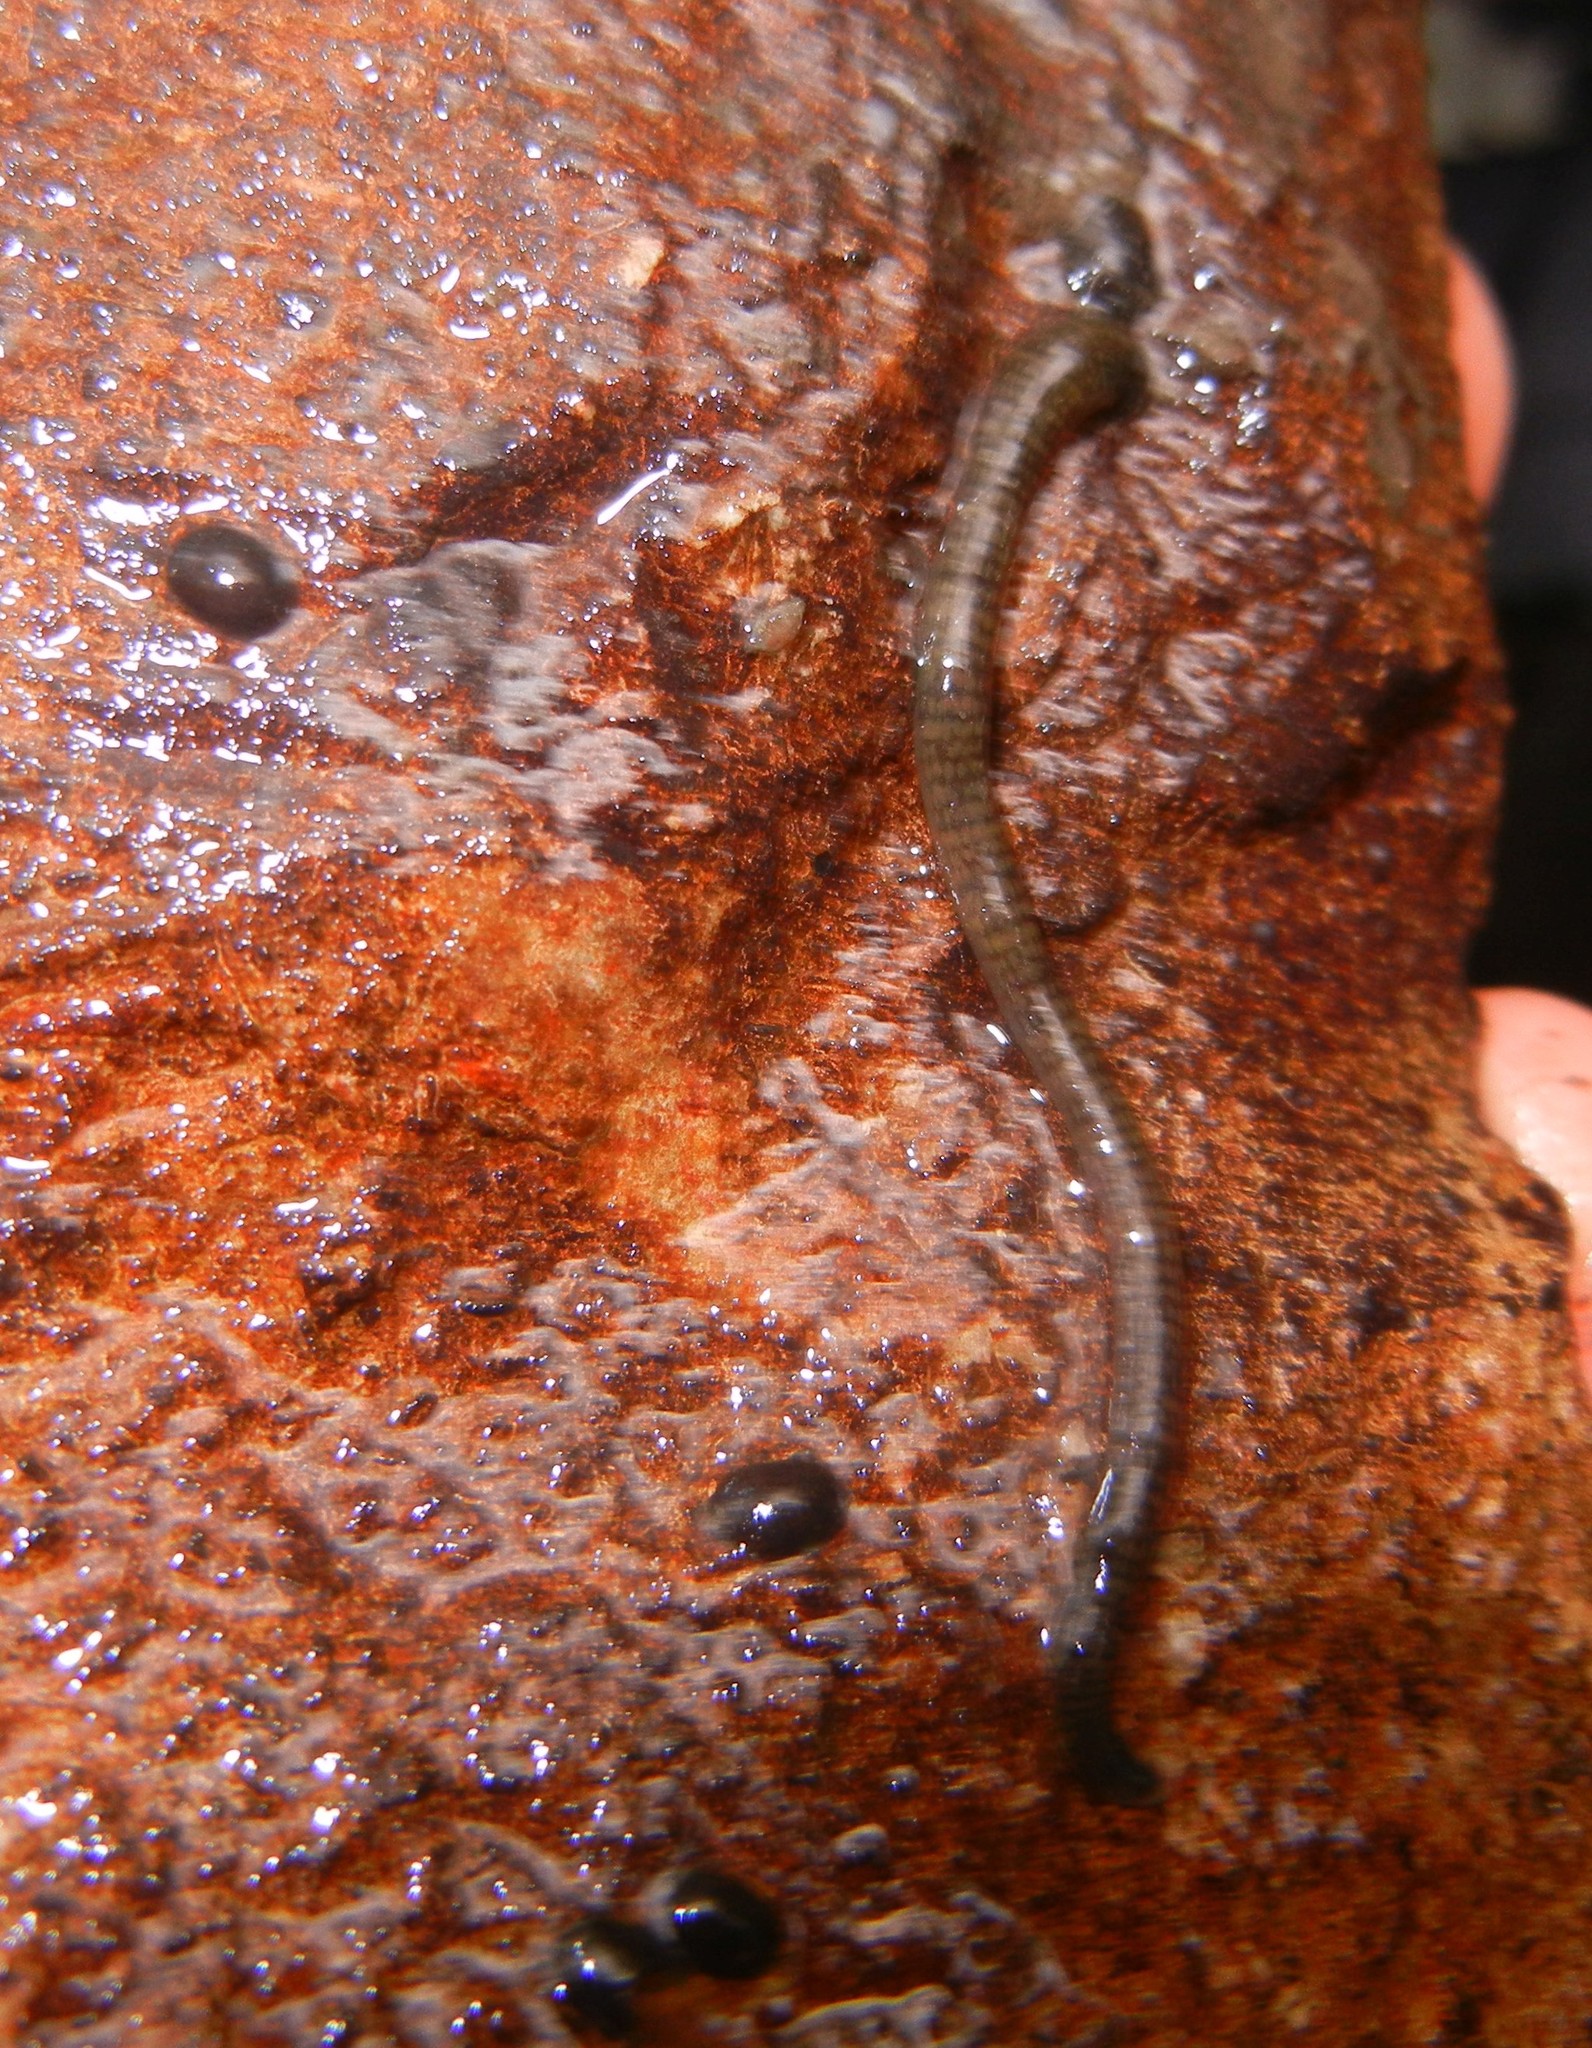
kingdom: Animalia
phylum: Annelida
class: Clitellata
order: Arhynchobdellida
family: Erpobdellidae
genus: Erpobdella
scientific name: Erpobdella octoculata
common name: Leeches
